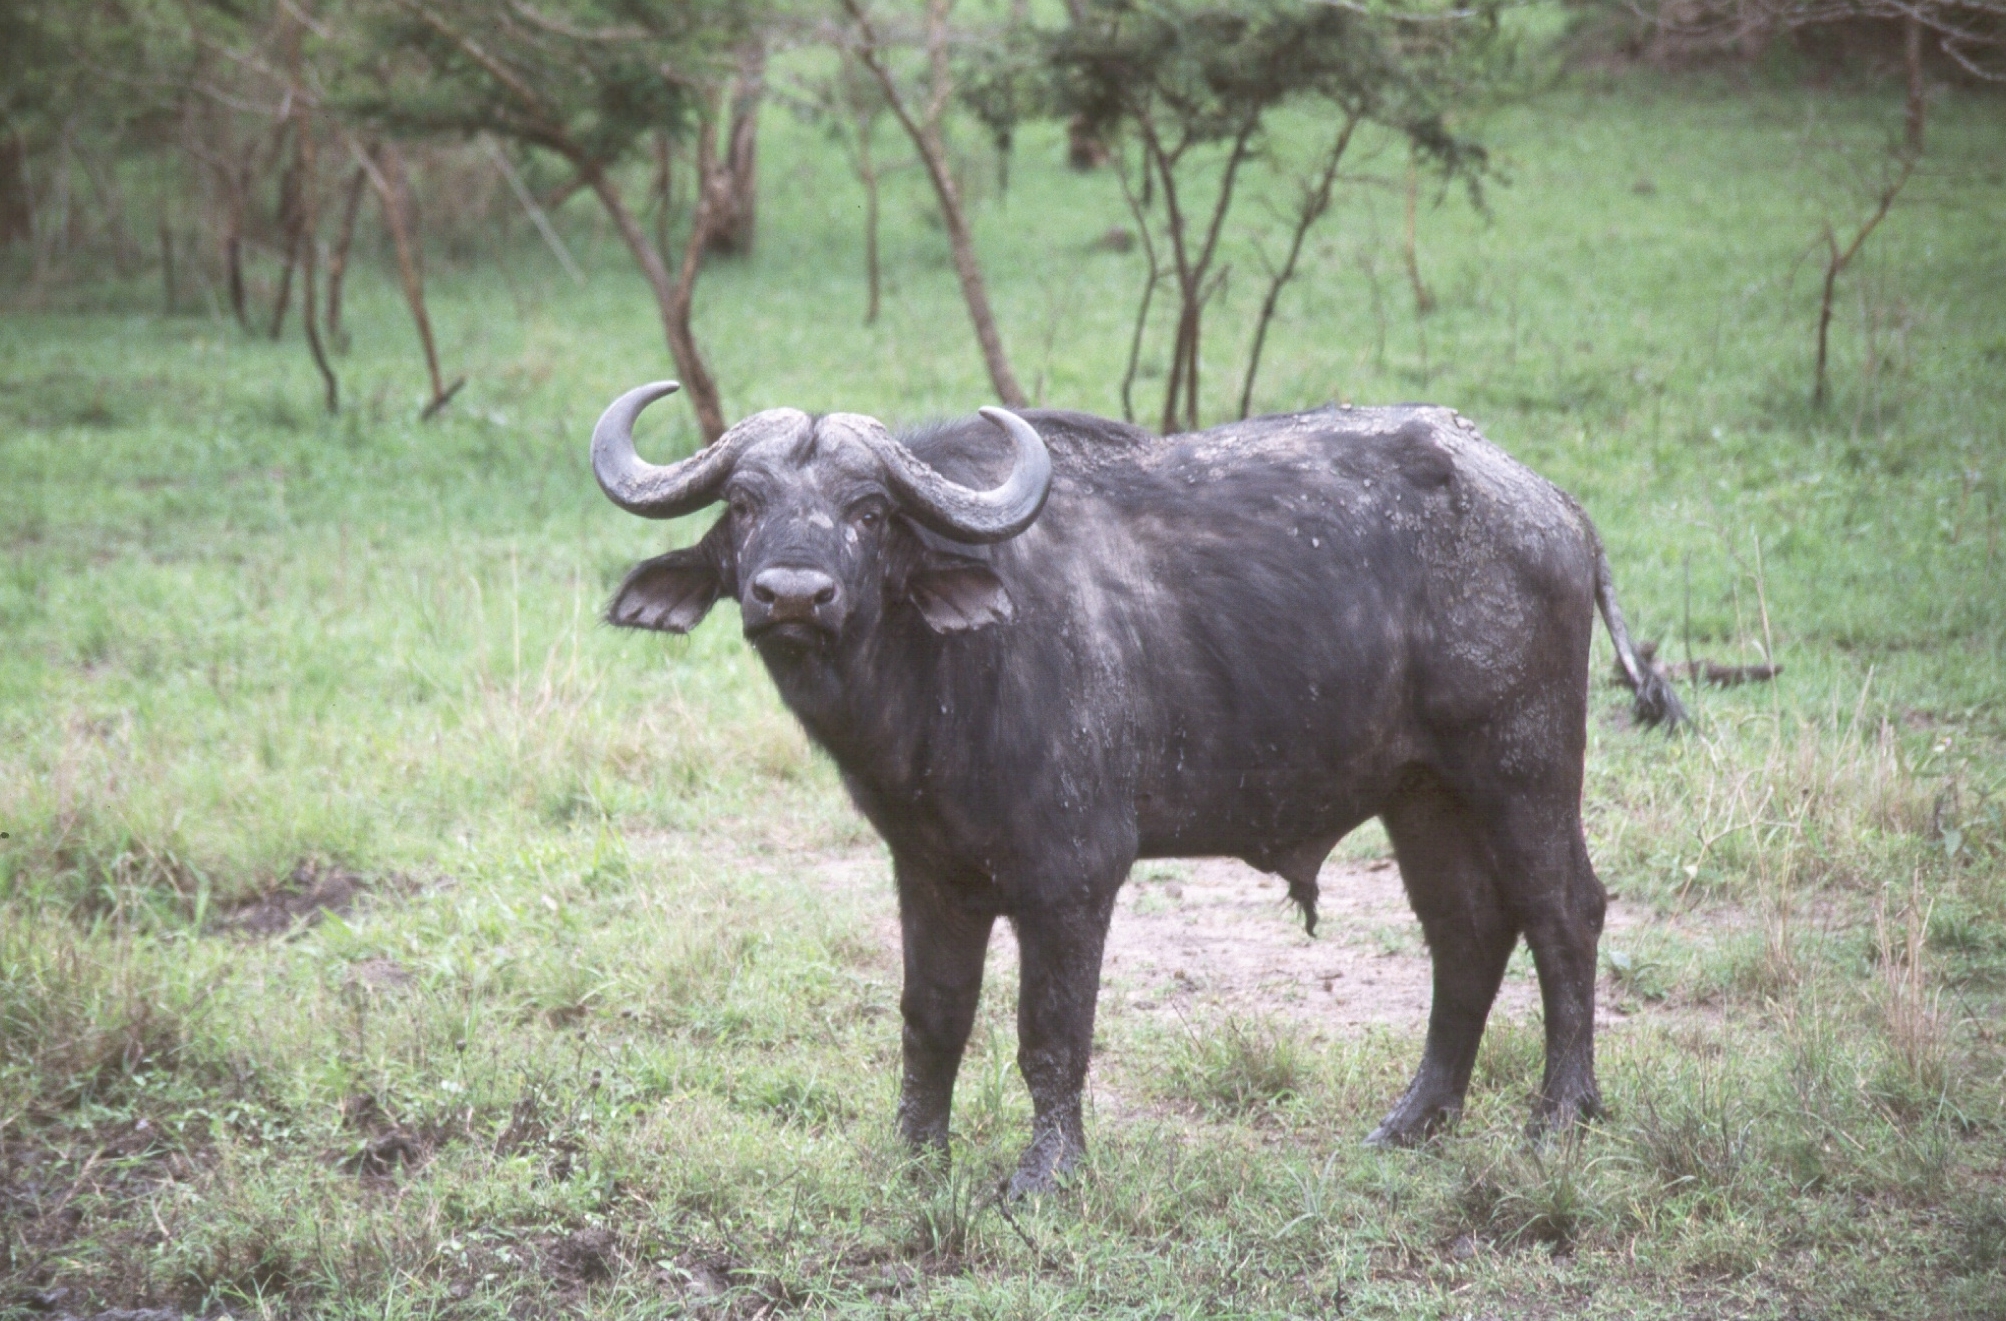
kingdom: Animalia
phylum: Chordata
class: Mammalia
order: Artiodactyla
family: Bovidae
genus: Syncerus
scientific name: Syncerus caffer
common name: African buffalo
